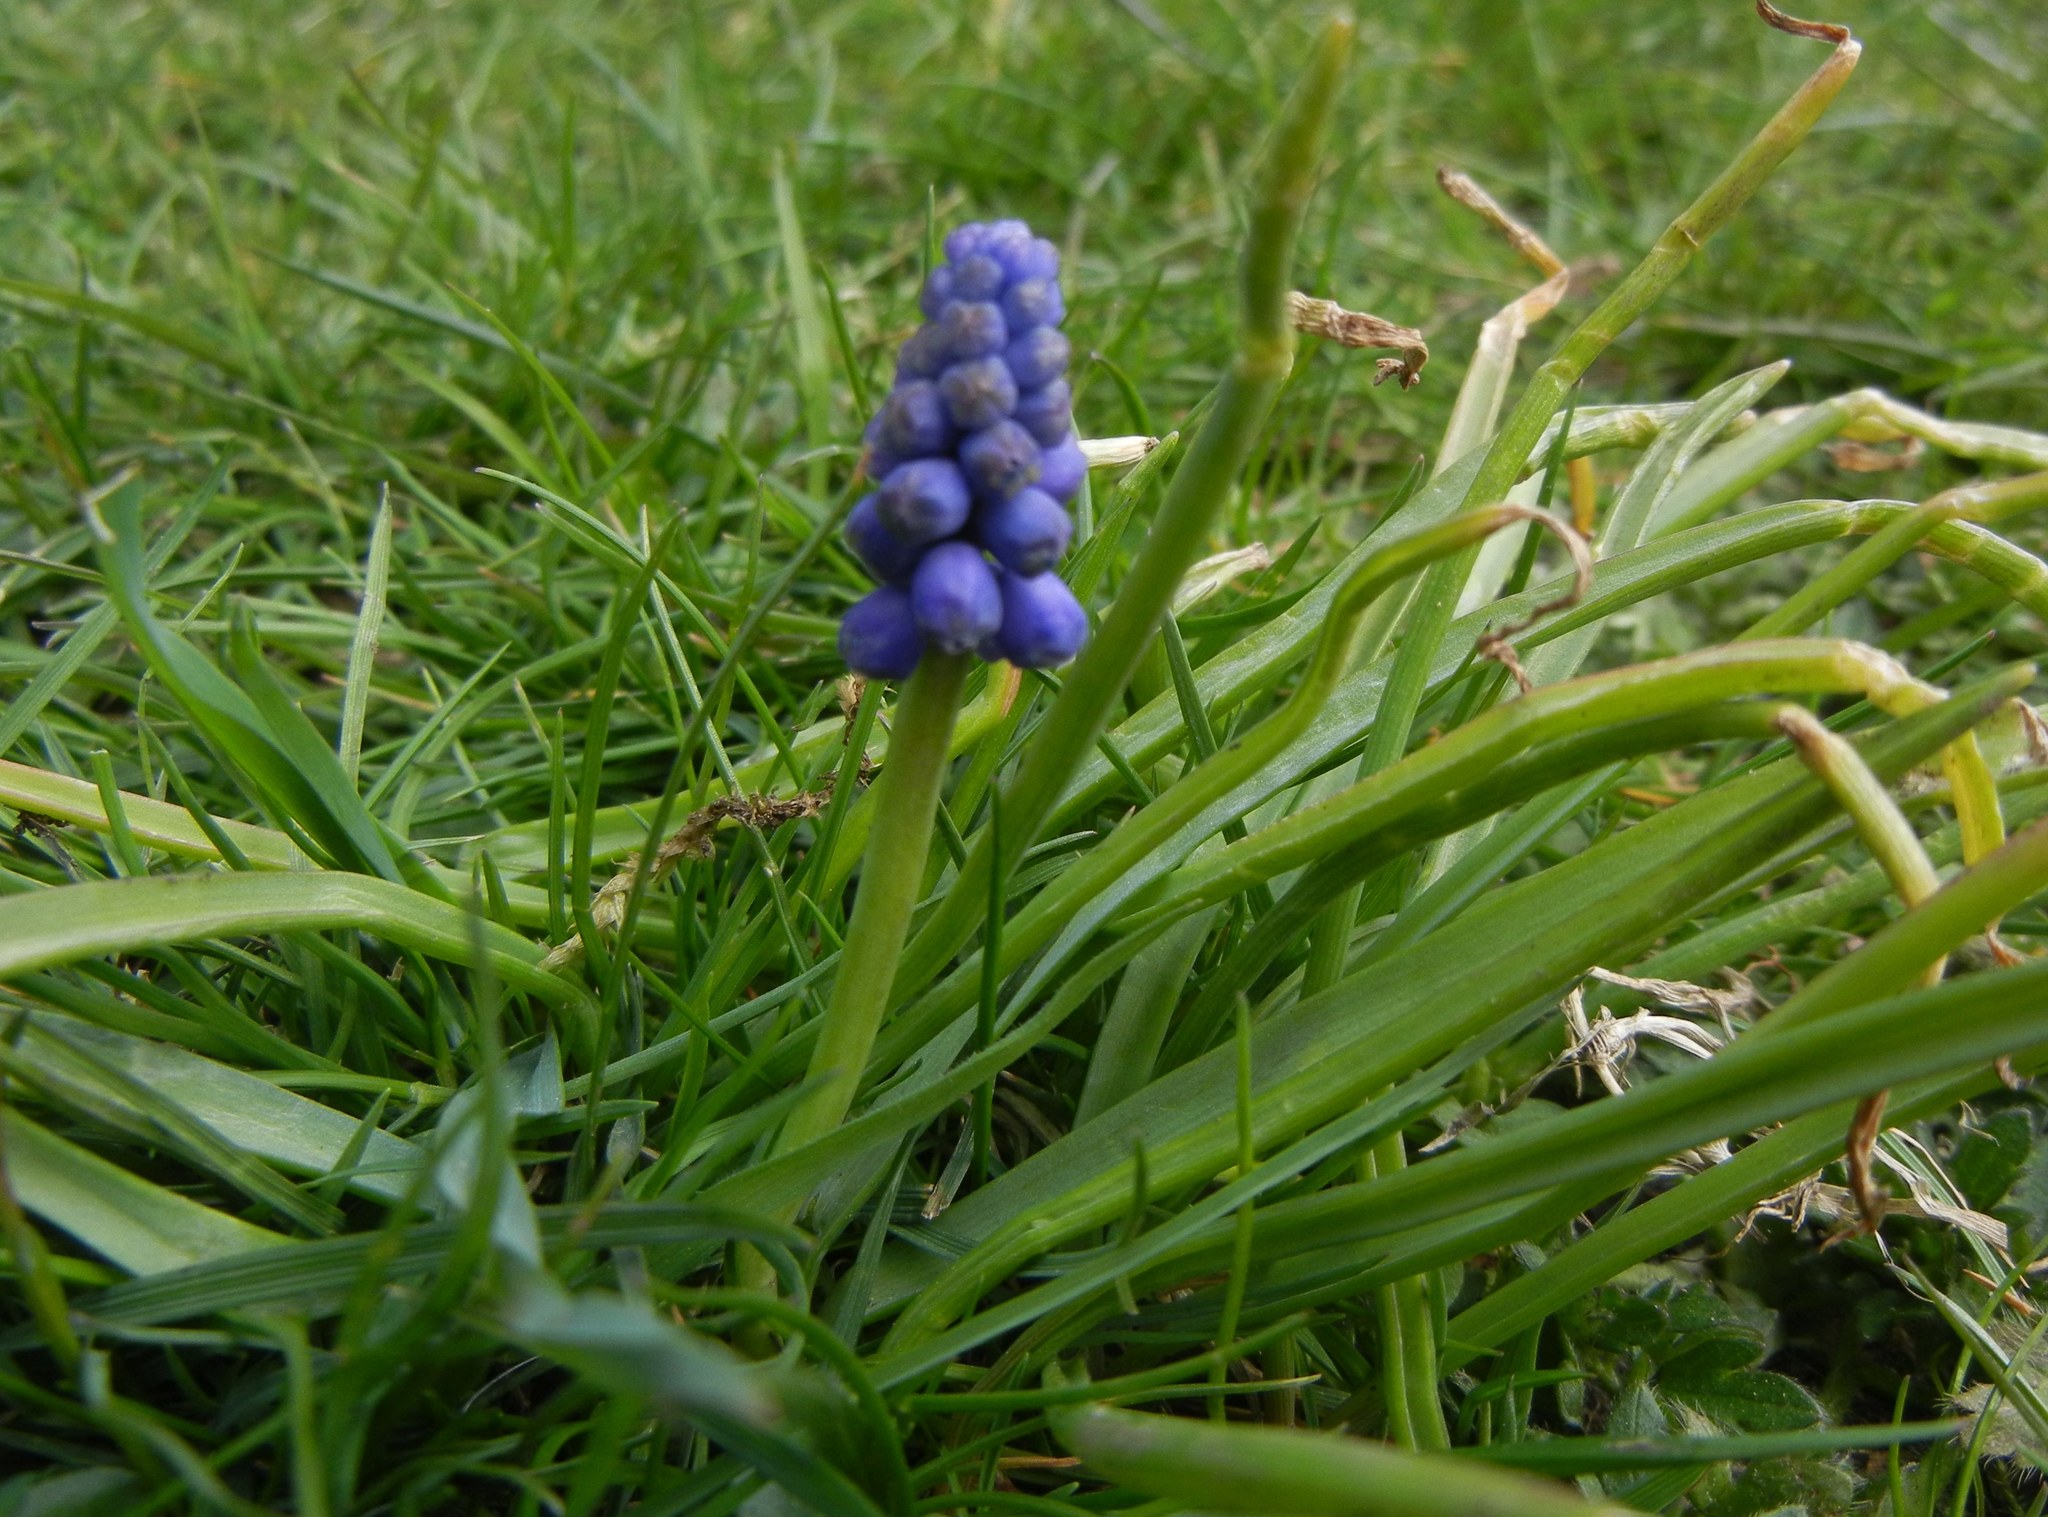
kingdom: Plantae
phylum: Tracheophyta
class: Liliopsida
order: Asparagales
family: Asparagaceae
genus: Muscari
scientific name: Muscari armeniacum
